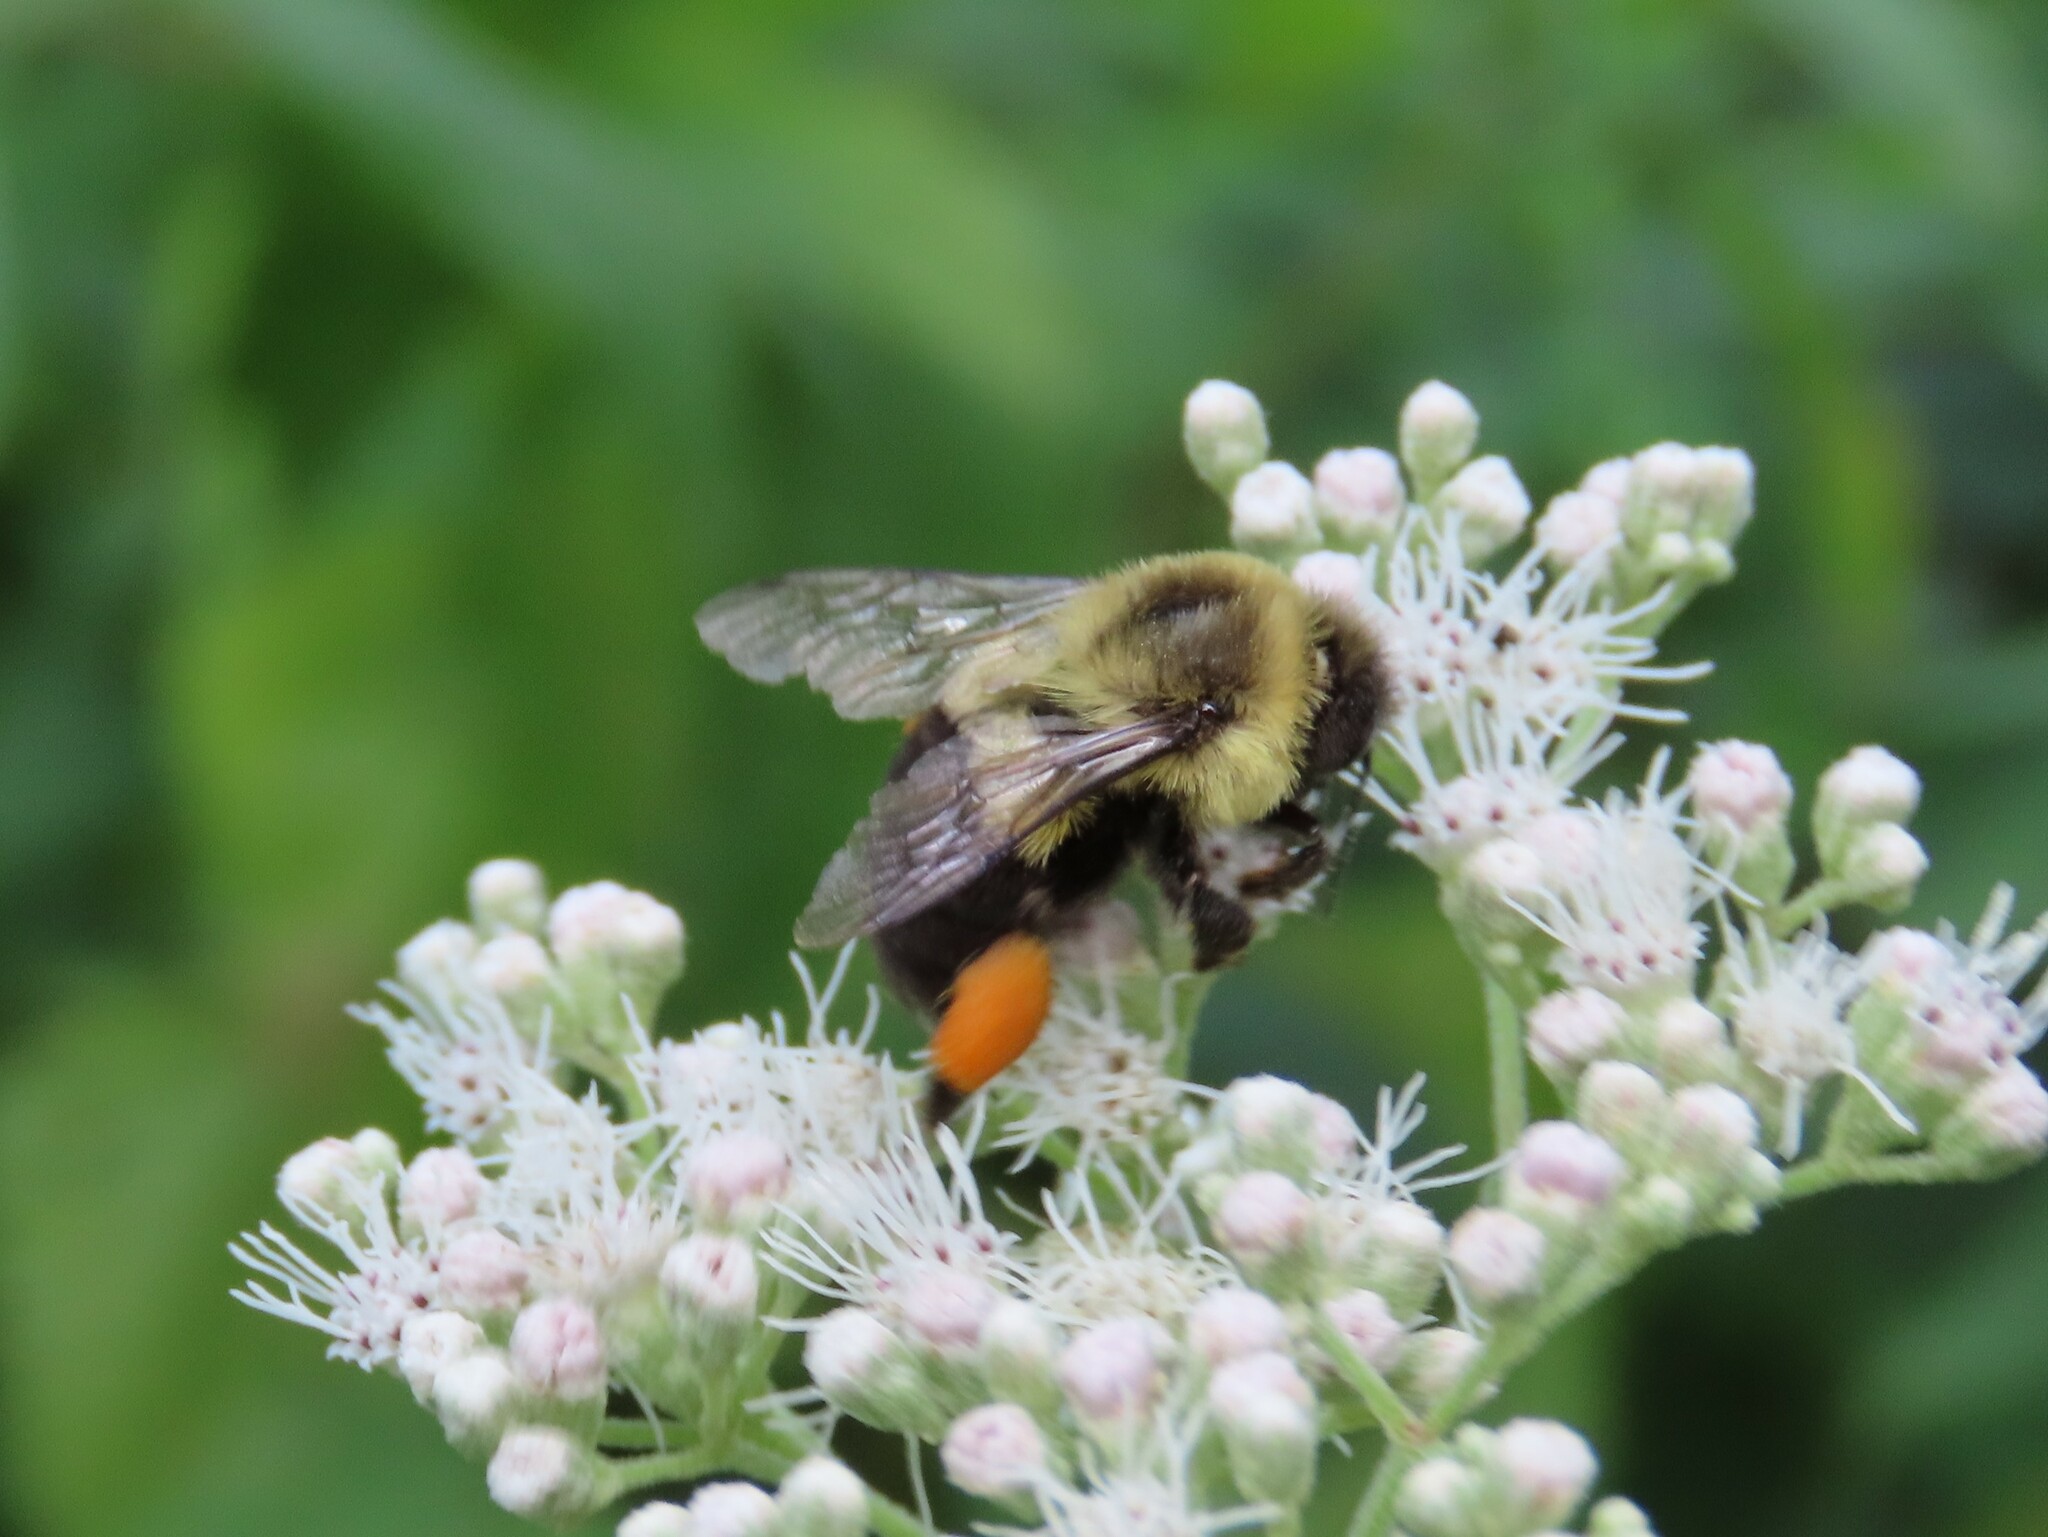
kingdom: Animalia
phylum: Arthropoda
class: Insecta
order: Hymenoptera
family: Apidae
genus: Bombus
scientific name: Bombus impatiens
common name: Common eastern bumble bee
